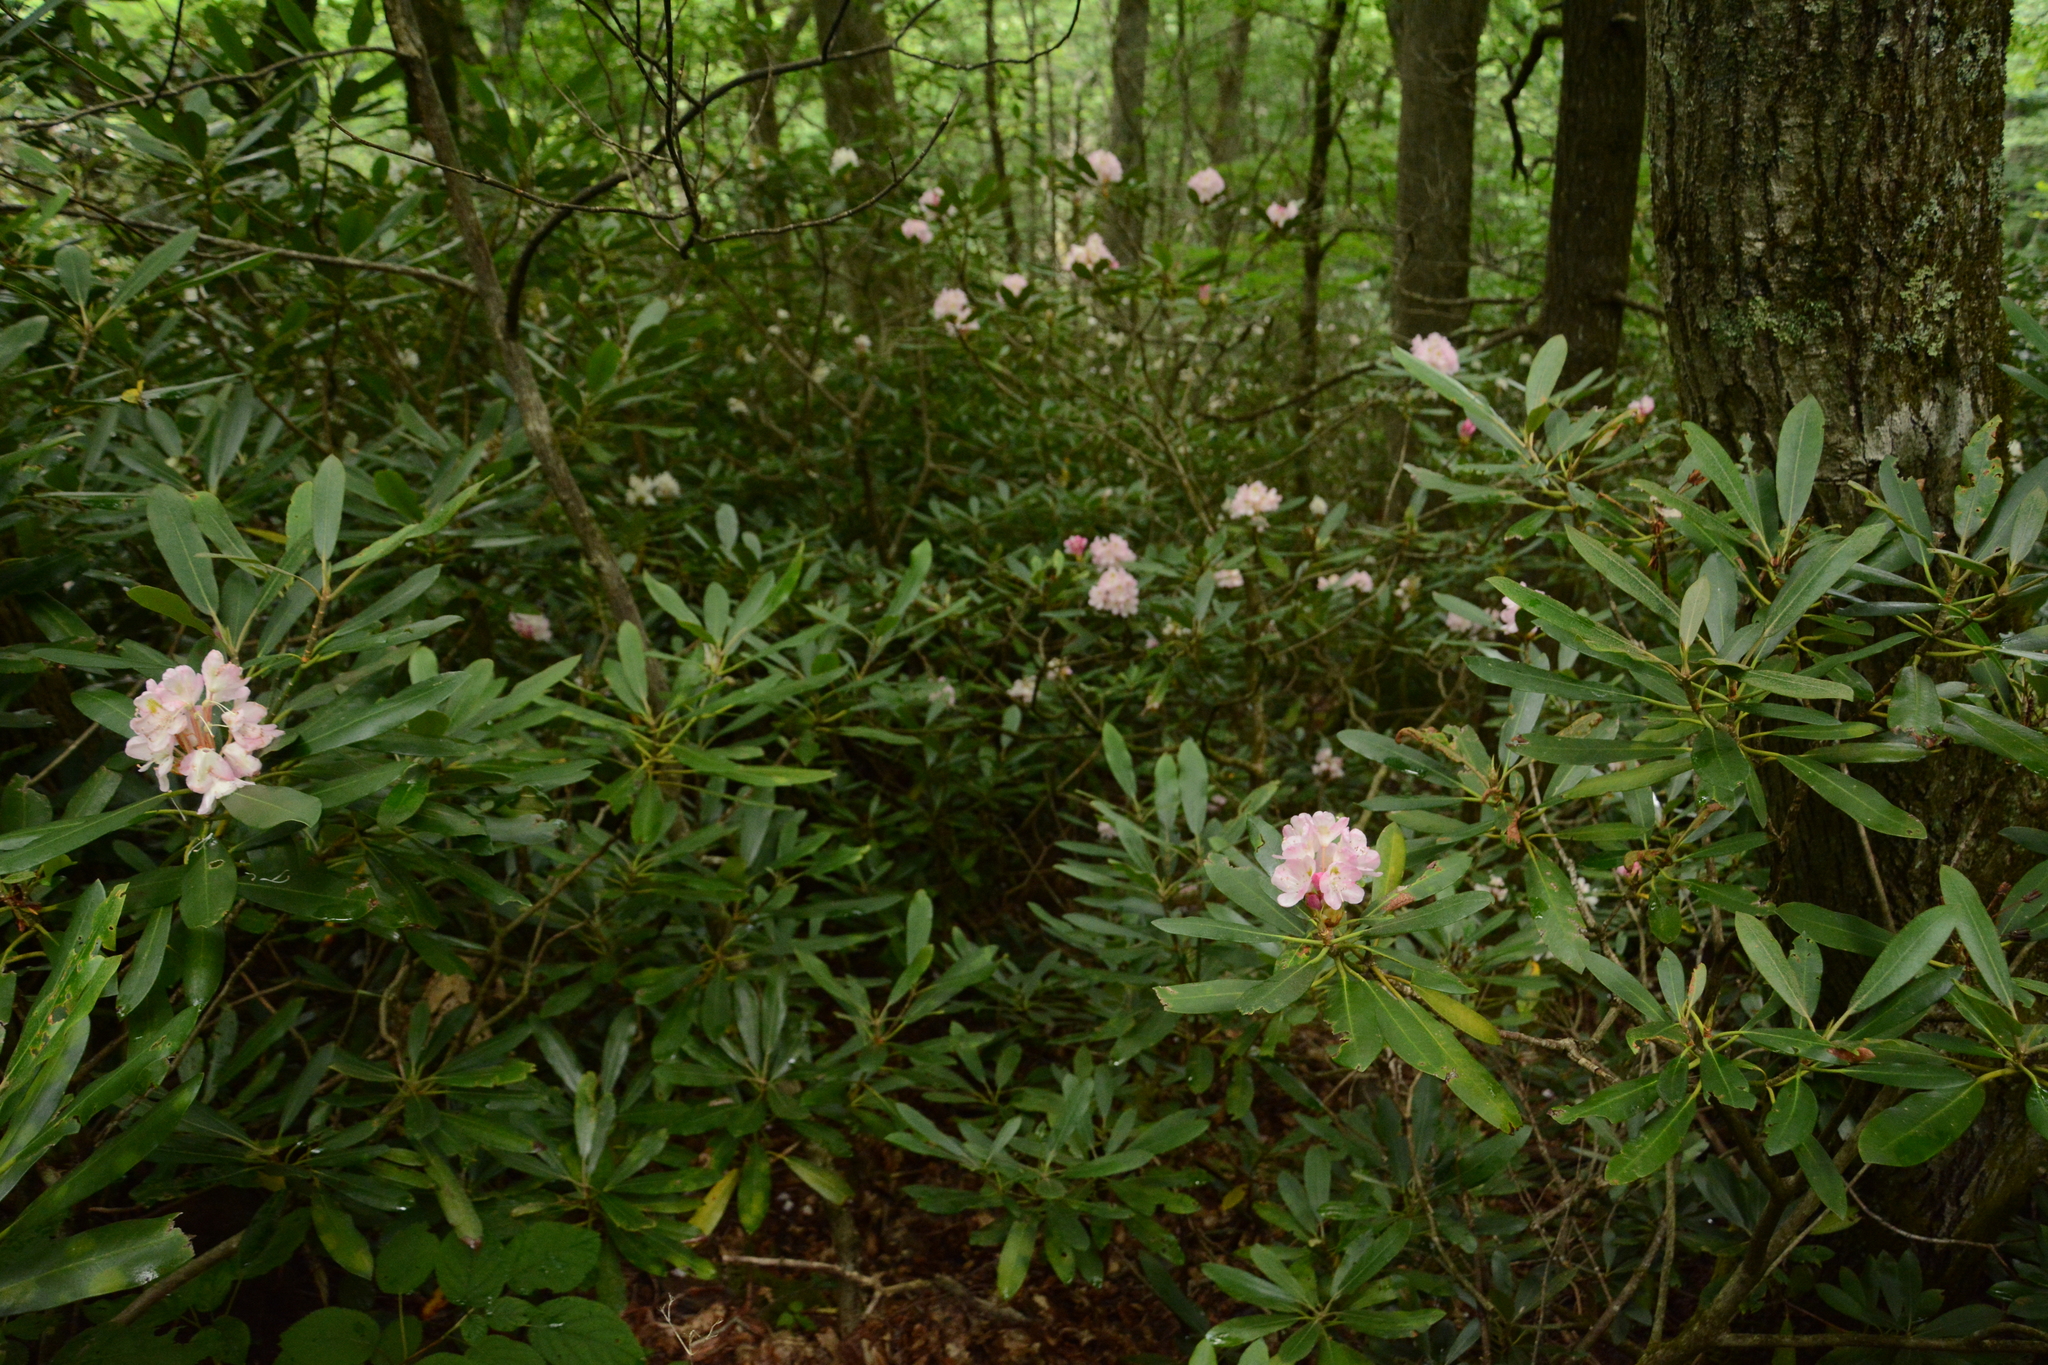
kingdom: Plantae
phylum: Tracheophyta
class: Magnoliopsida
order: Ericales
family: Ericaceae
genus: Rhododendron
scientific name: Rhododendron maximum
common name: Great rhododendron
